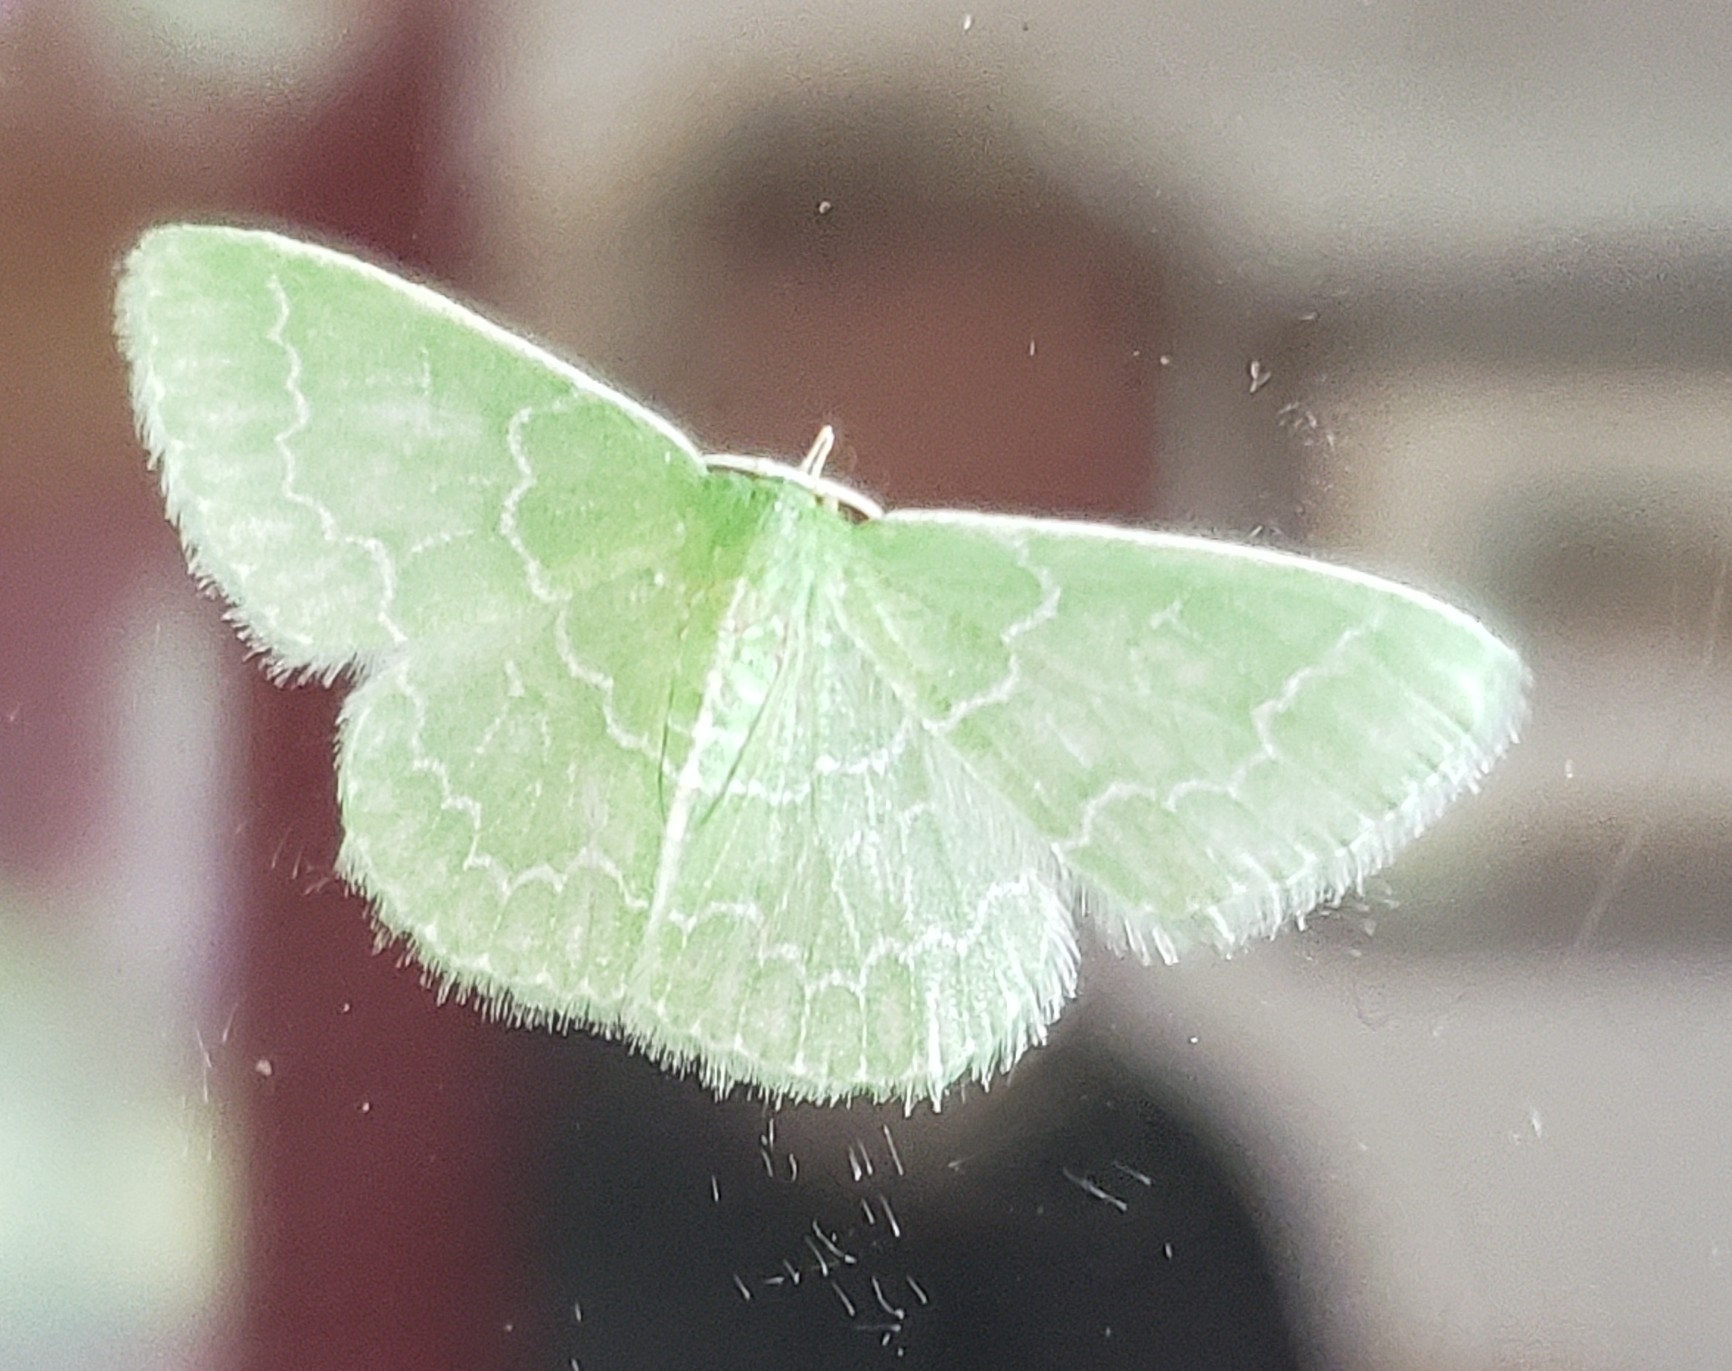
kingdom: Animalia
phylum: Arthropoda
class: Insecta
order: Lepidoptera
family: Geometridae
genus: Synchlora
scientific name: Synchlora frondaria
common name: Southern emerald
